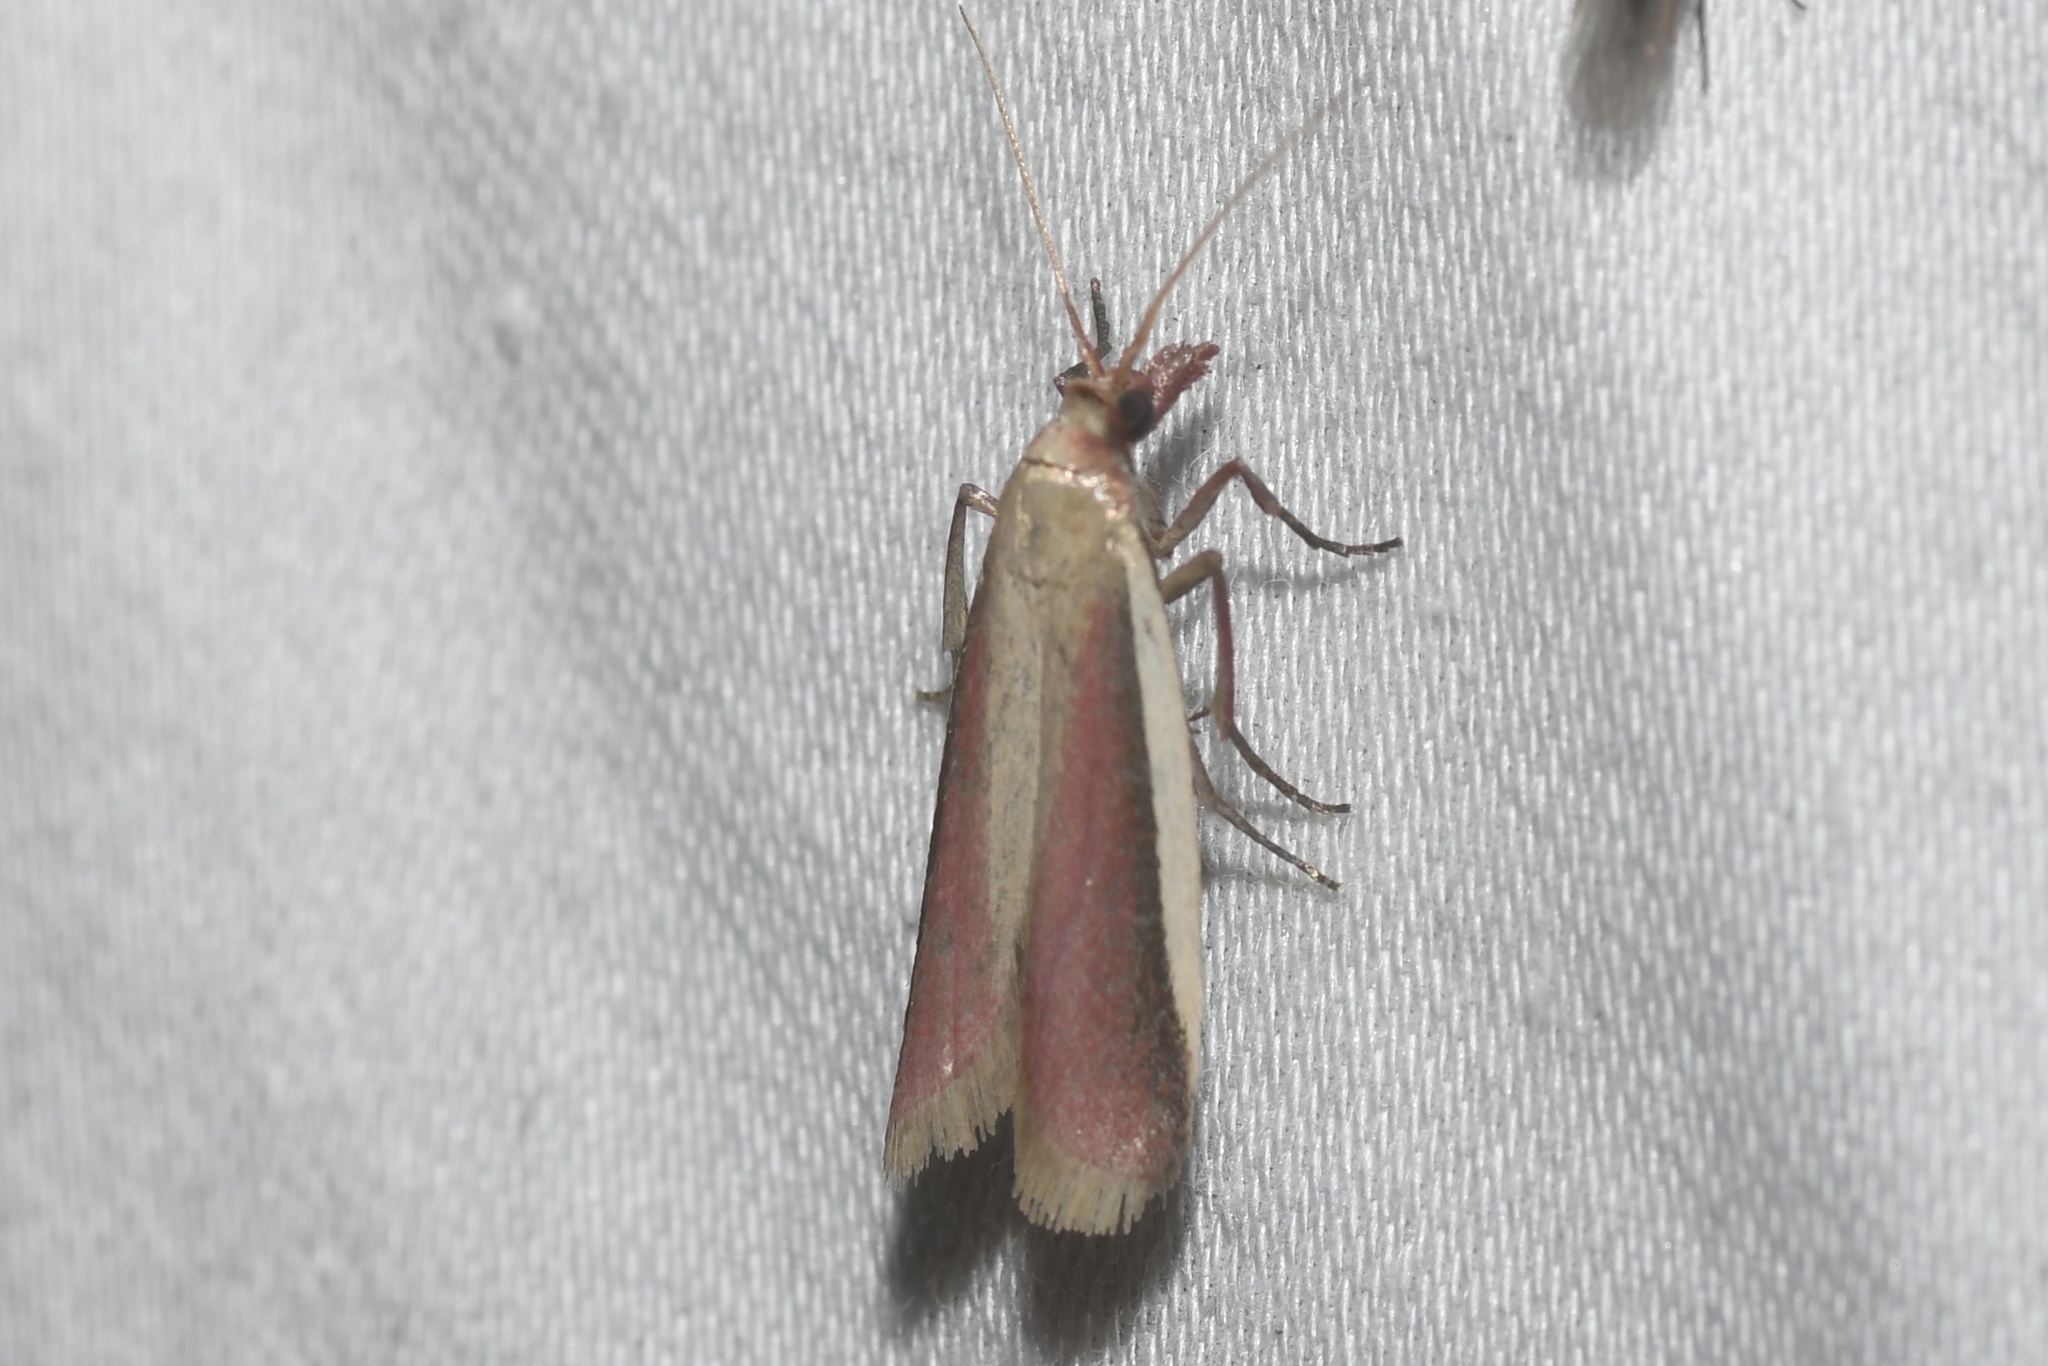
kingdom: Animalia
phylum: Arthropoda
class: Insecta
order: Lepidoptera
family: Pyralidae
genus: Peoria
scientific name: Peoria approximella
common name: Carmine snout
